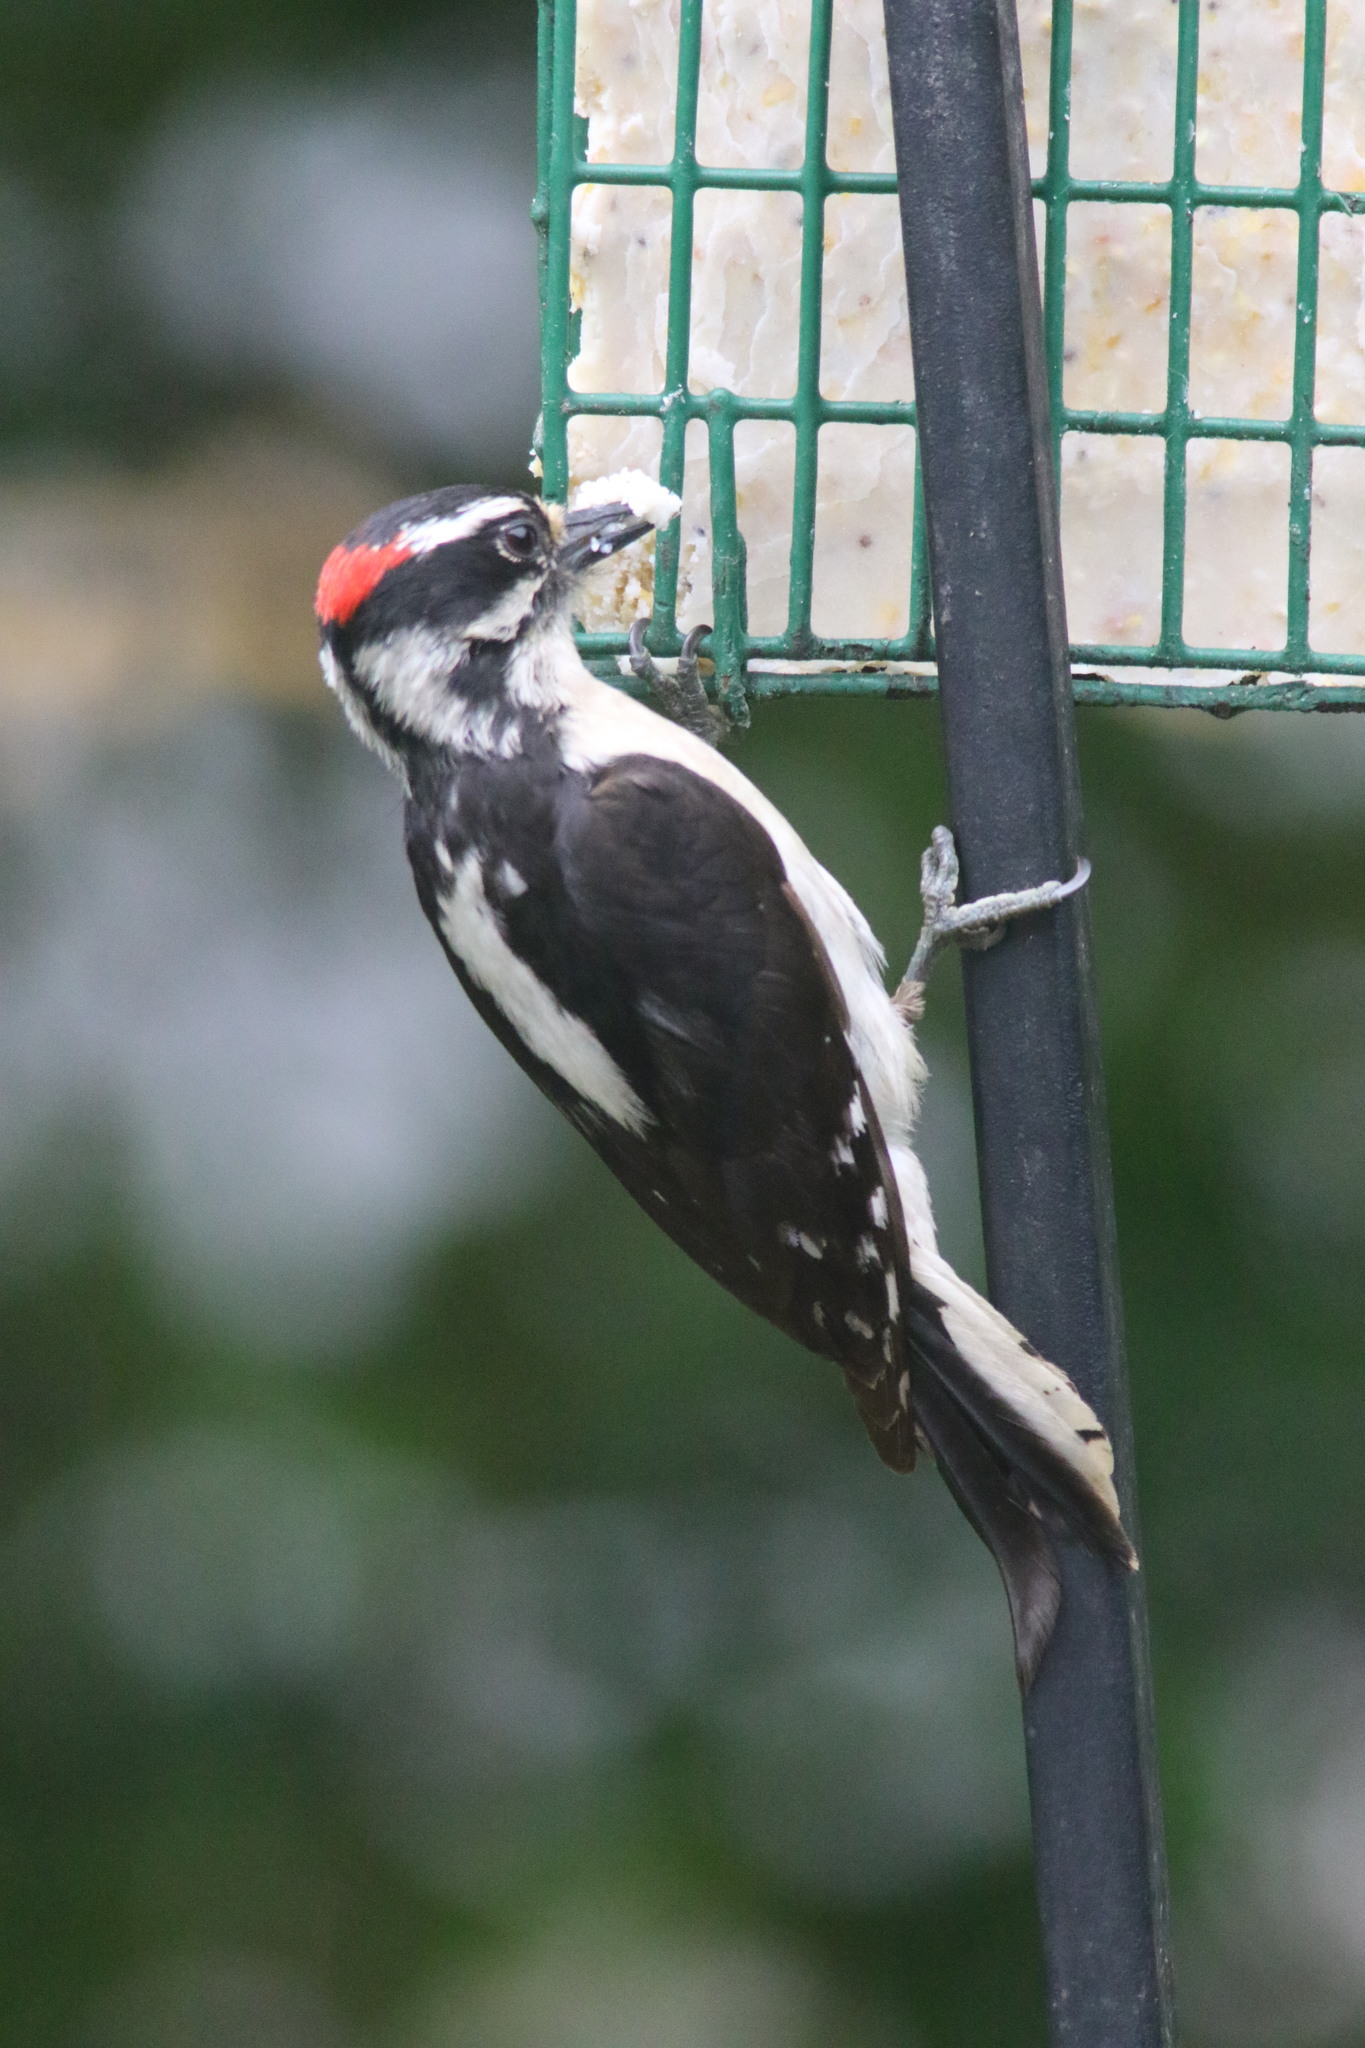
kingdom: Animalia
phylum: Chordata
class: Aves
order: Piciformes
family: Picidae
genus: Dryobates
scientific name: Dryobates pubescens
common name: Downy woodpecker
